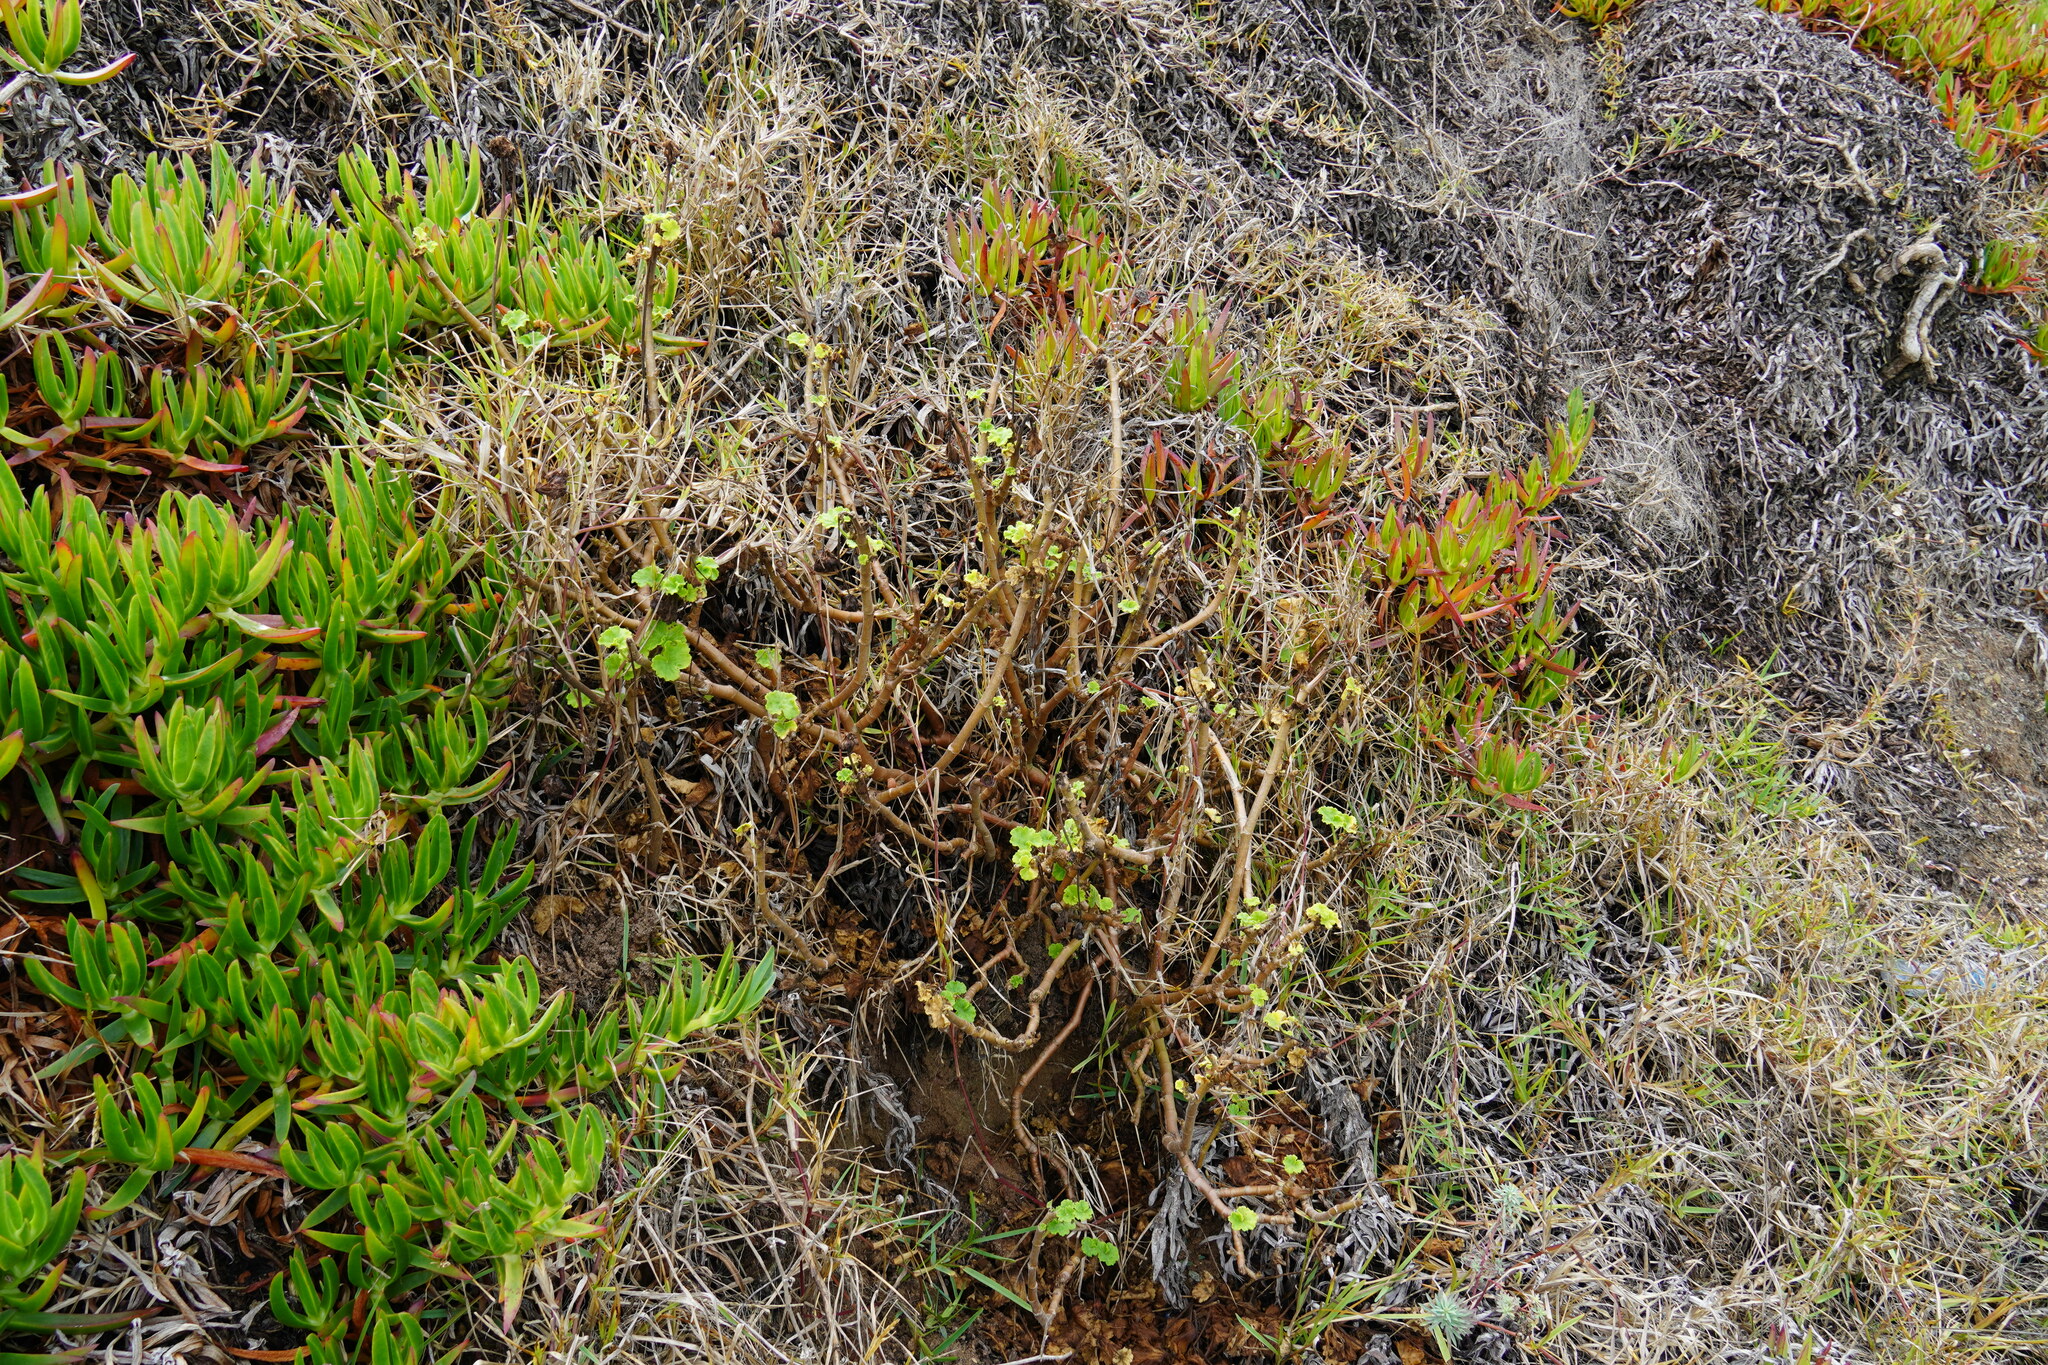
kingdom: Plantae
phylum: Tracheophyta
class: Magnoliopsida
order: Geraniales
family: Geraniaceae
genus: Pelargonium
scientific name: Pelargonium hybridum
